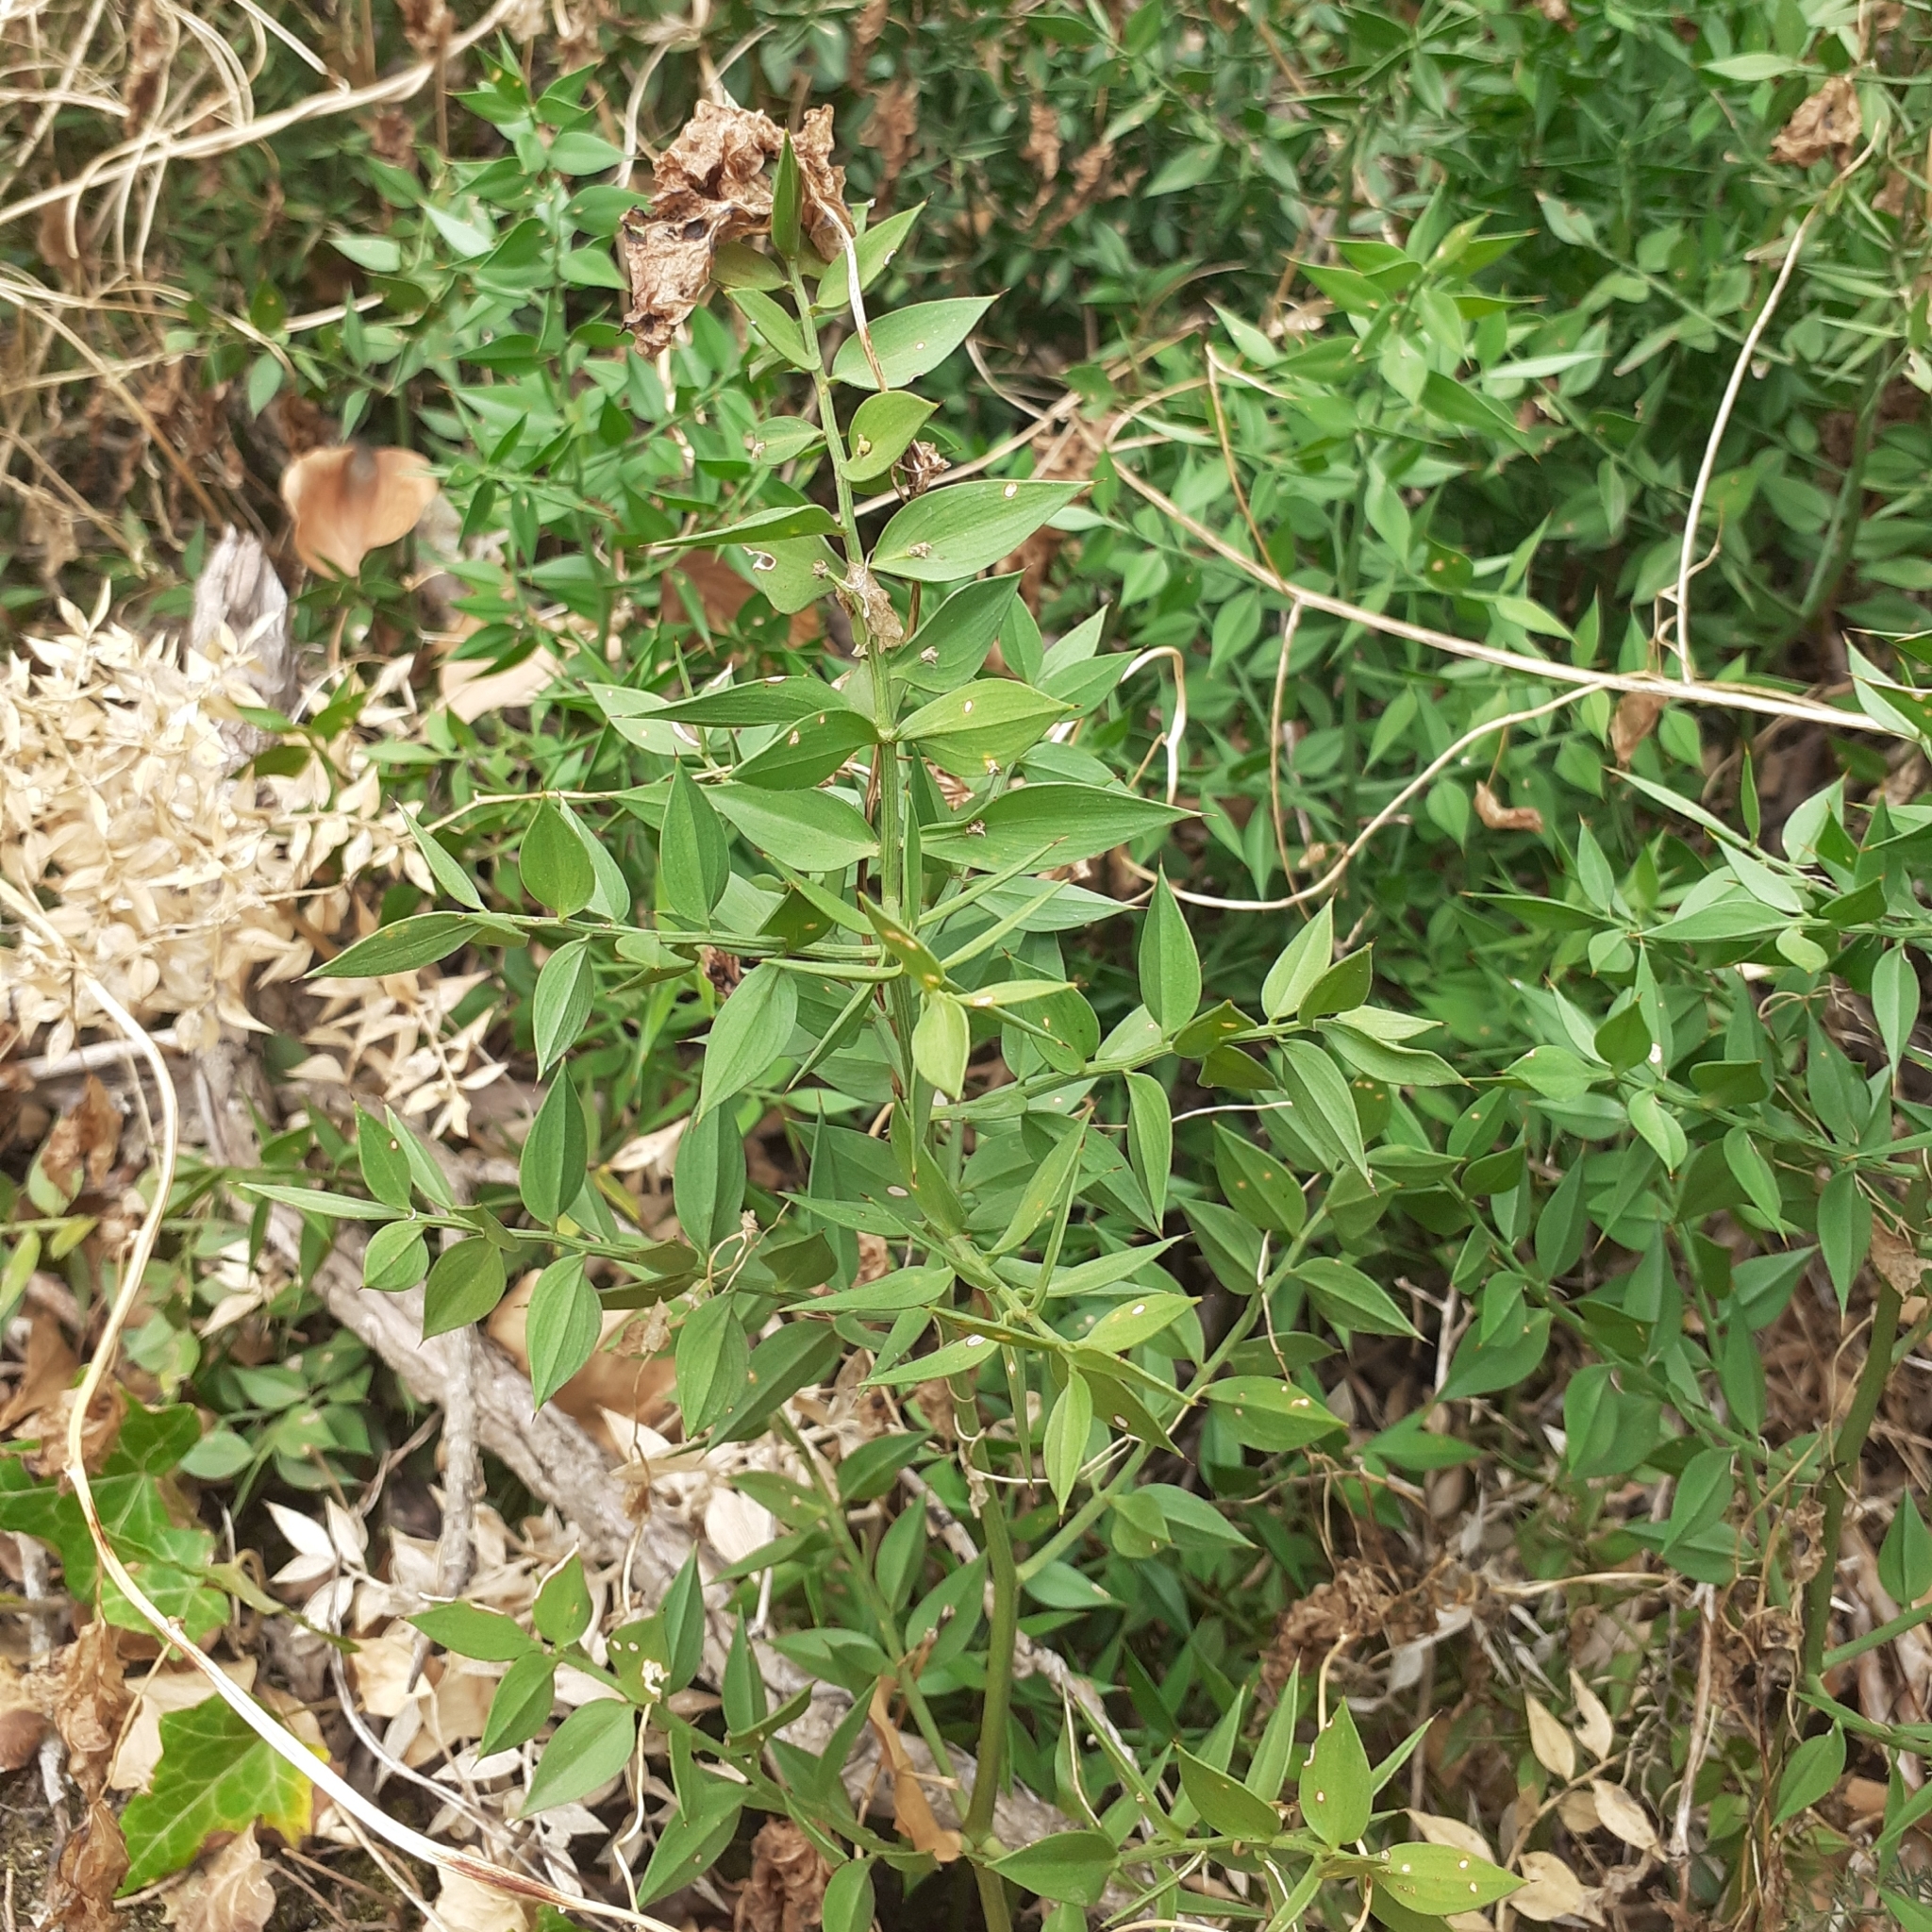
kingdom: Plantae
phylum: Tracheophyta
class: Liliopsida
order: Asparagales
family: Asparagaceae
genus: Ruscus
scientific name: Ruscus aculeatus
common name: Butcher's-broom
